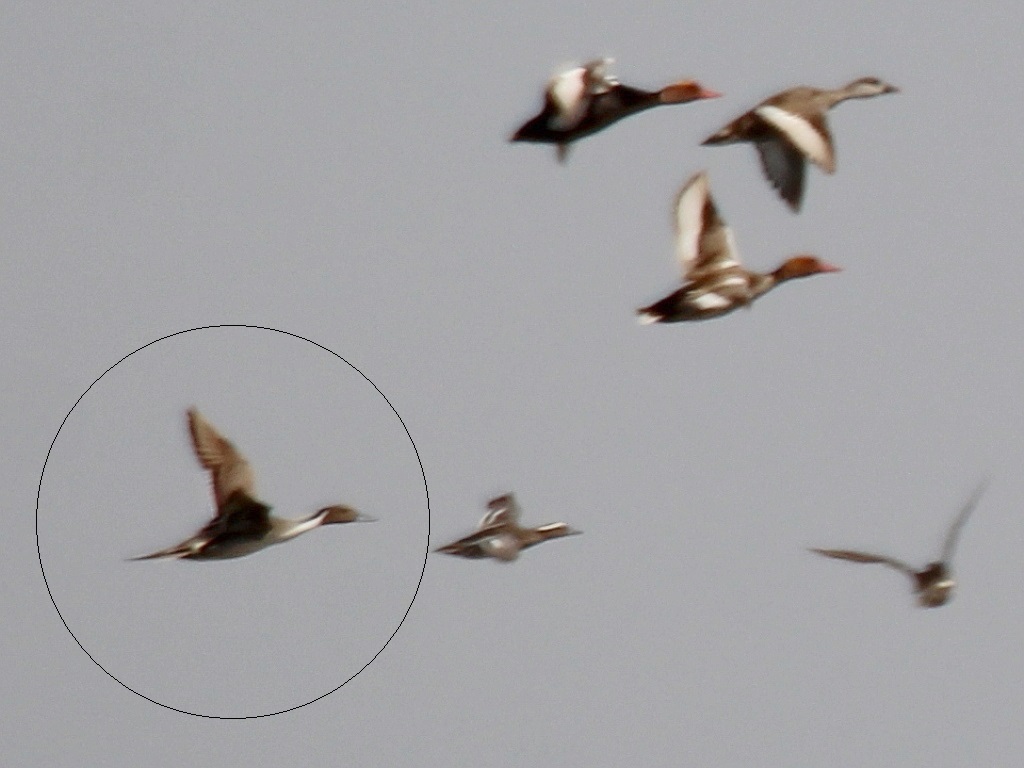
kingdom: Animalia
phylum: Chordata
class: Aves
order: Anseriformes
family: Anatidae
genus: Anas
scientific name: Anas acuta
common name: Northern pintail
